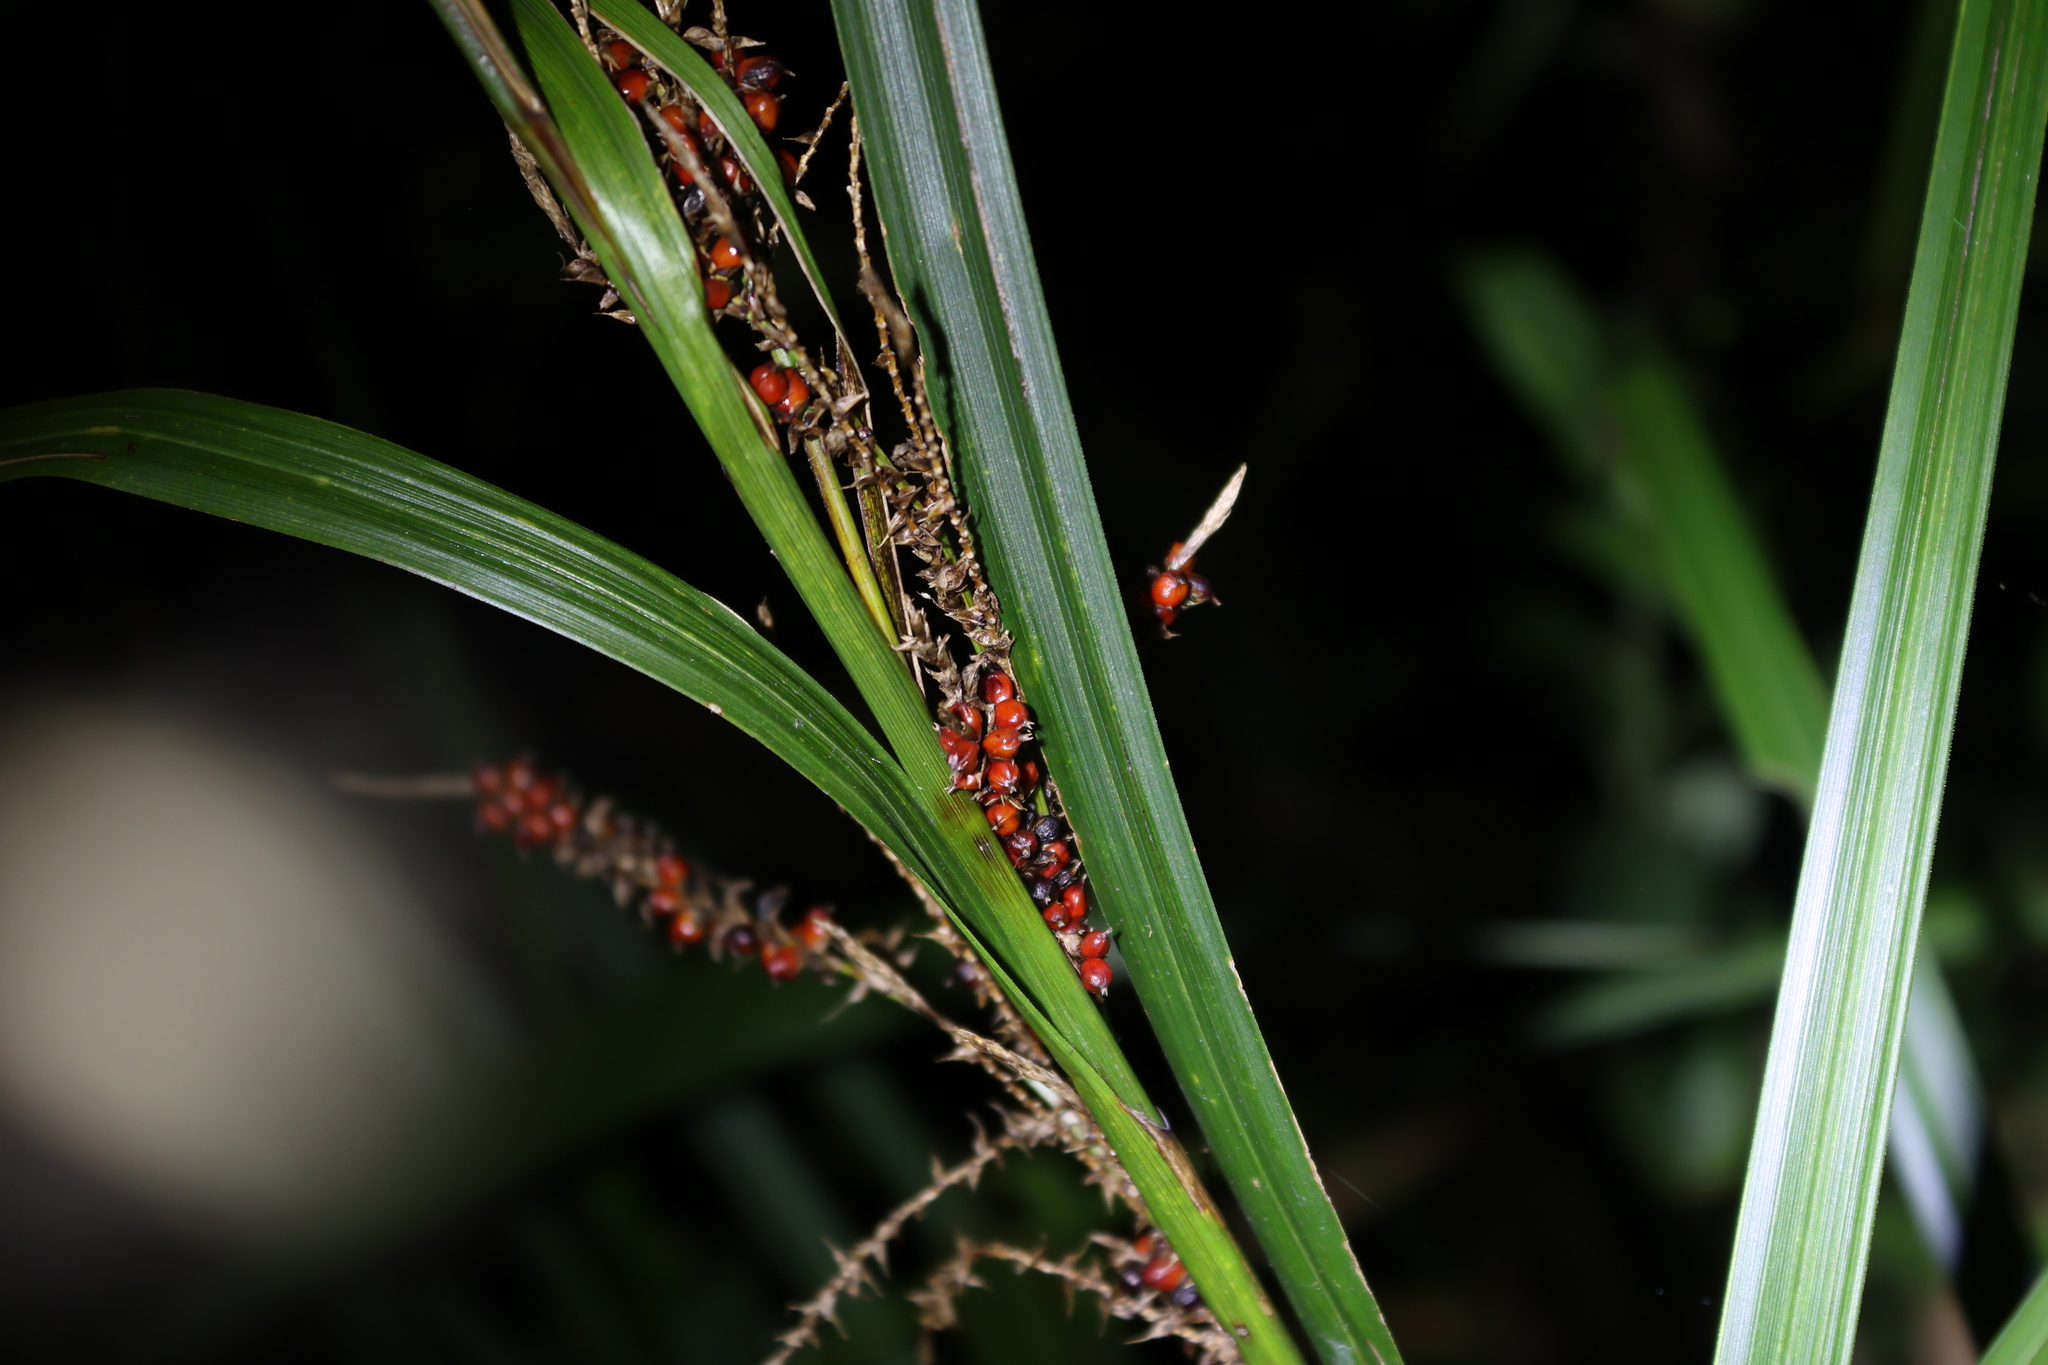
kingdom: Plantae
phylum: Tracheophyta
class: Liliopsida
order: Poales
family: Cyperaceae
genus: Carex
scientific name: Carex baccans
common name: Crimson seeded sedge
